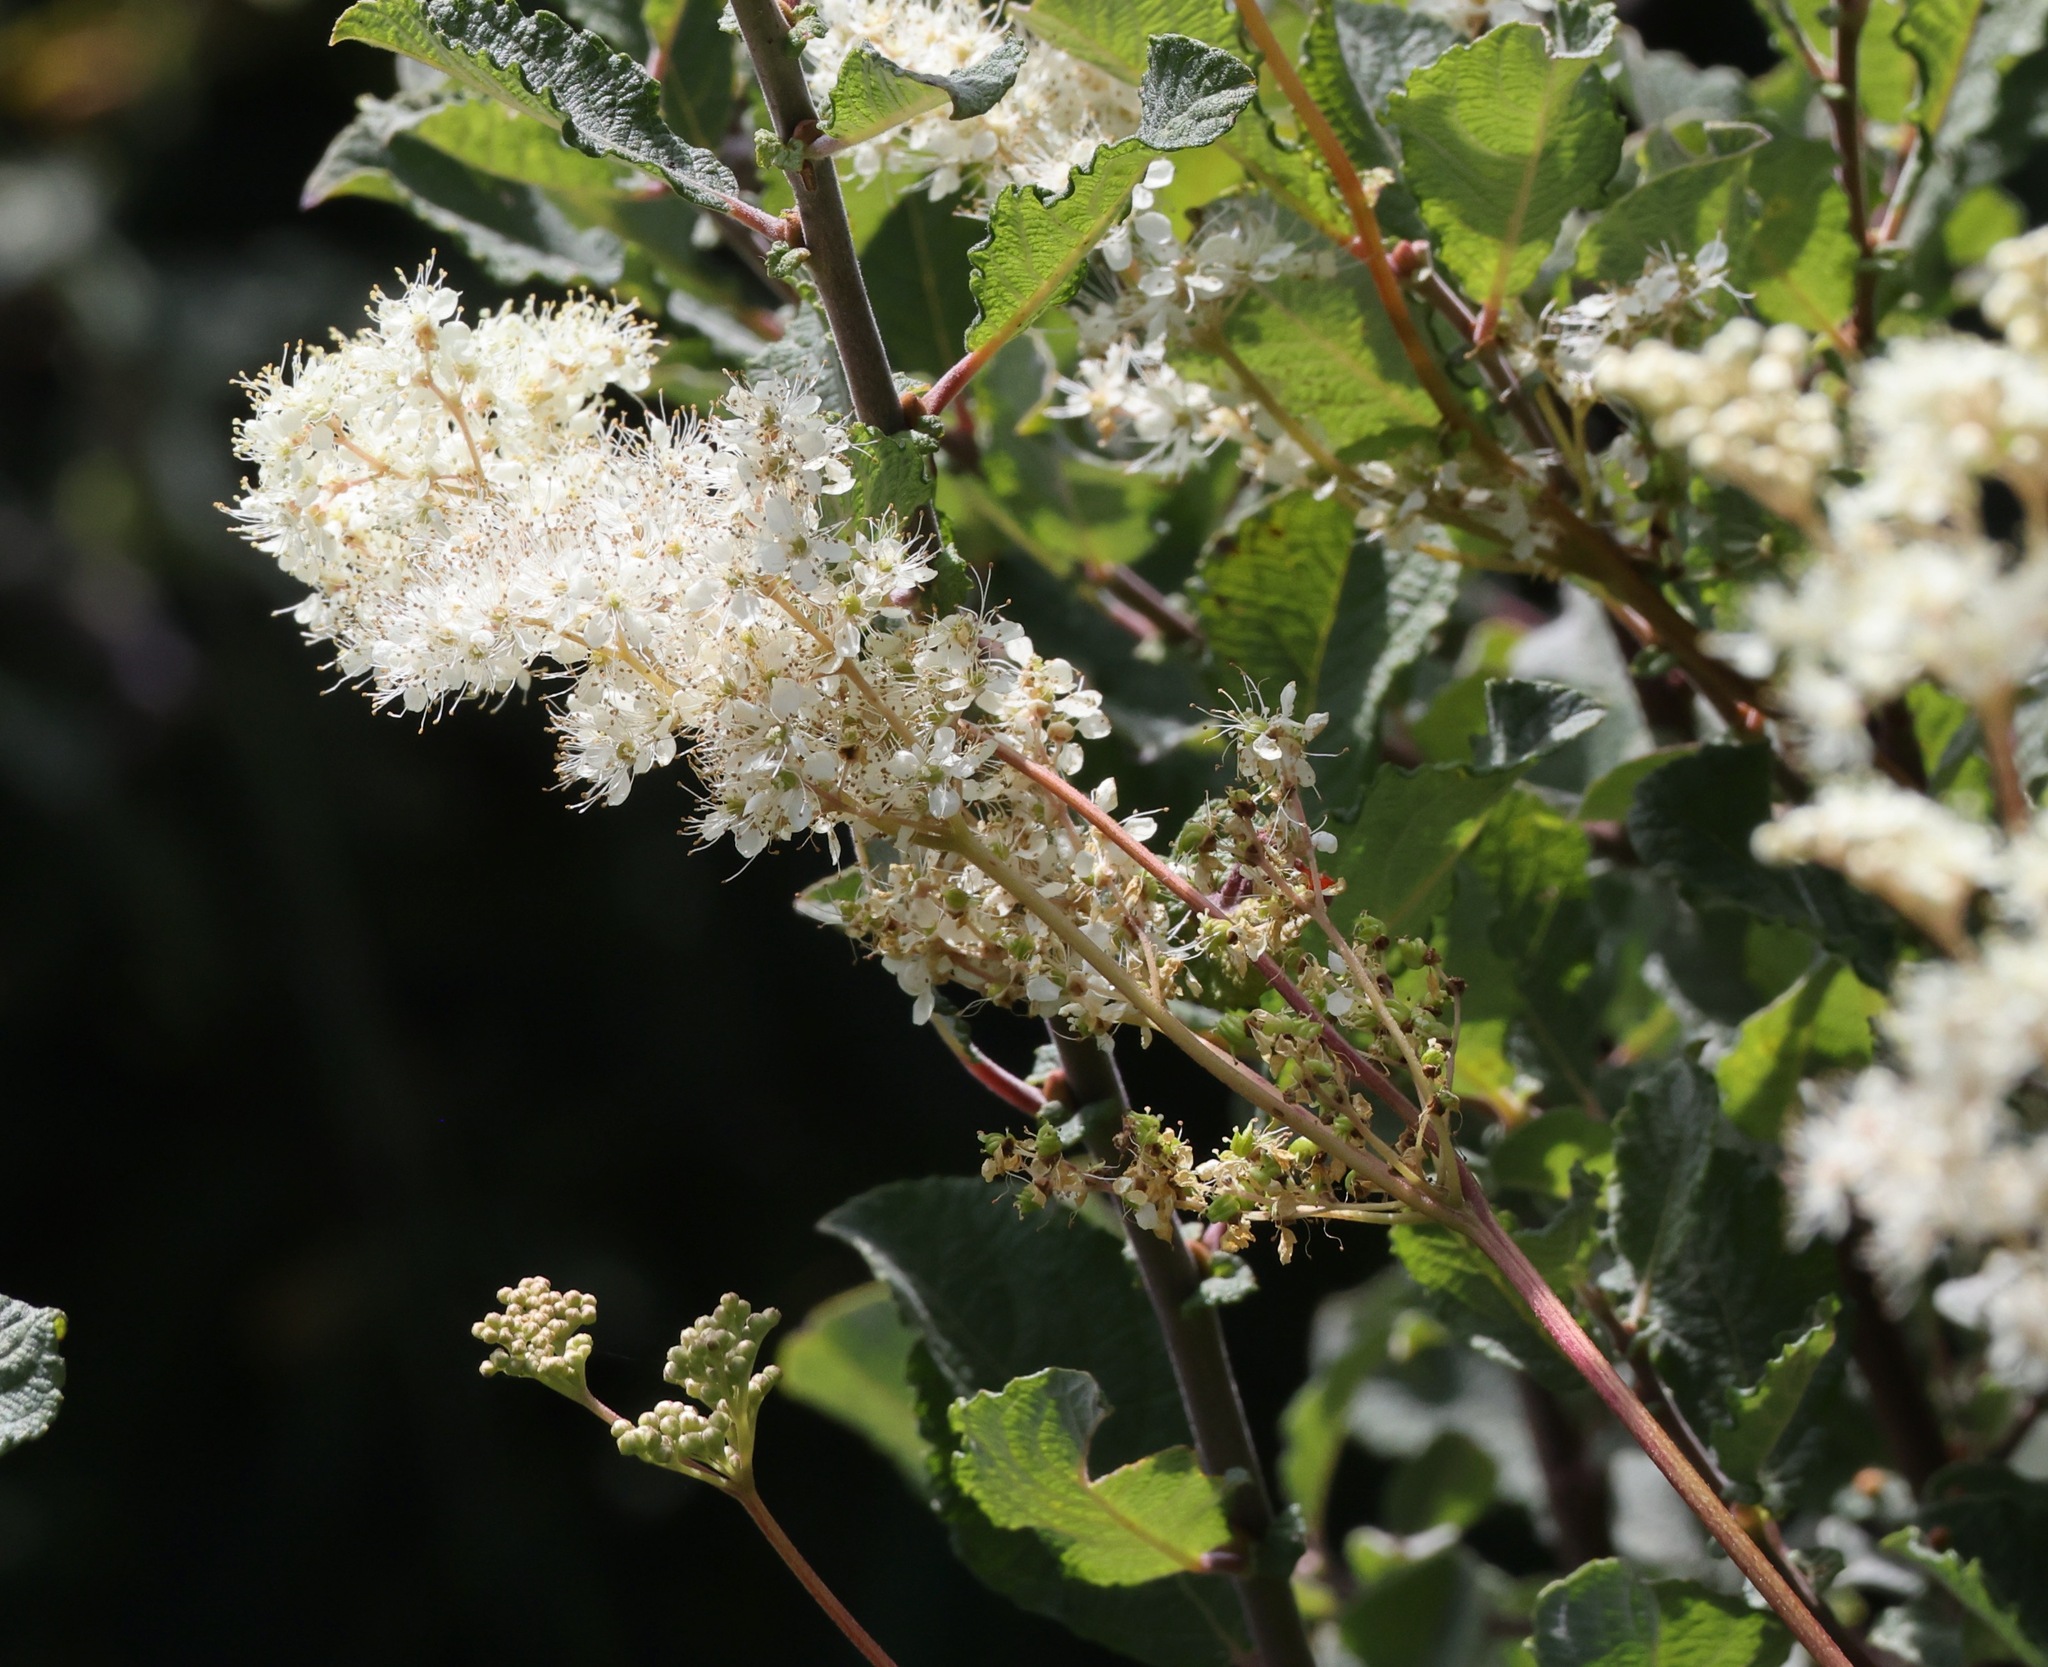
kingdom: Plantae
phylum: Tracheophyta
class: Magnoliopsida
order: Rosales
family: Rosaceae
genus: Filipendula
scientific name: Filipendula ulmaria
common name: Meadowsweet
